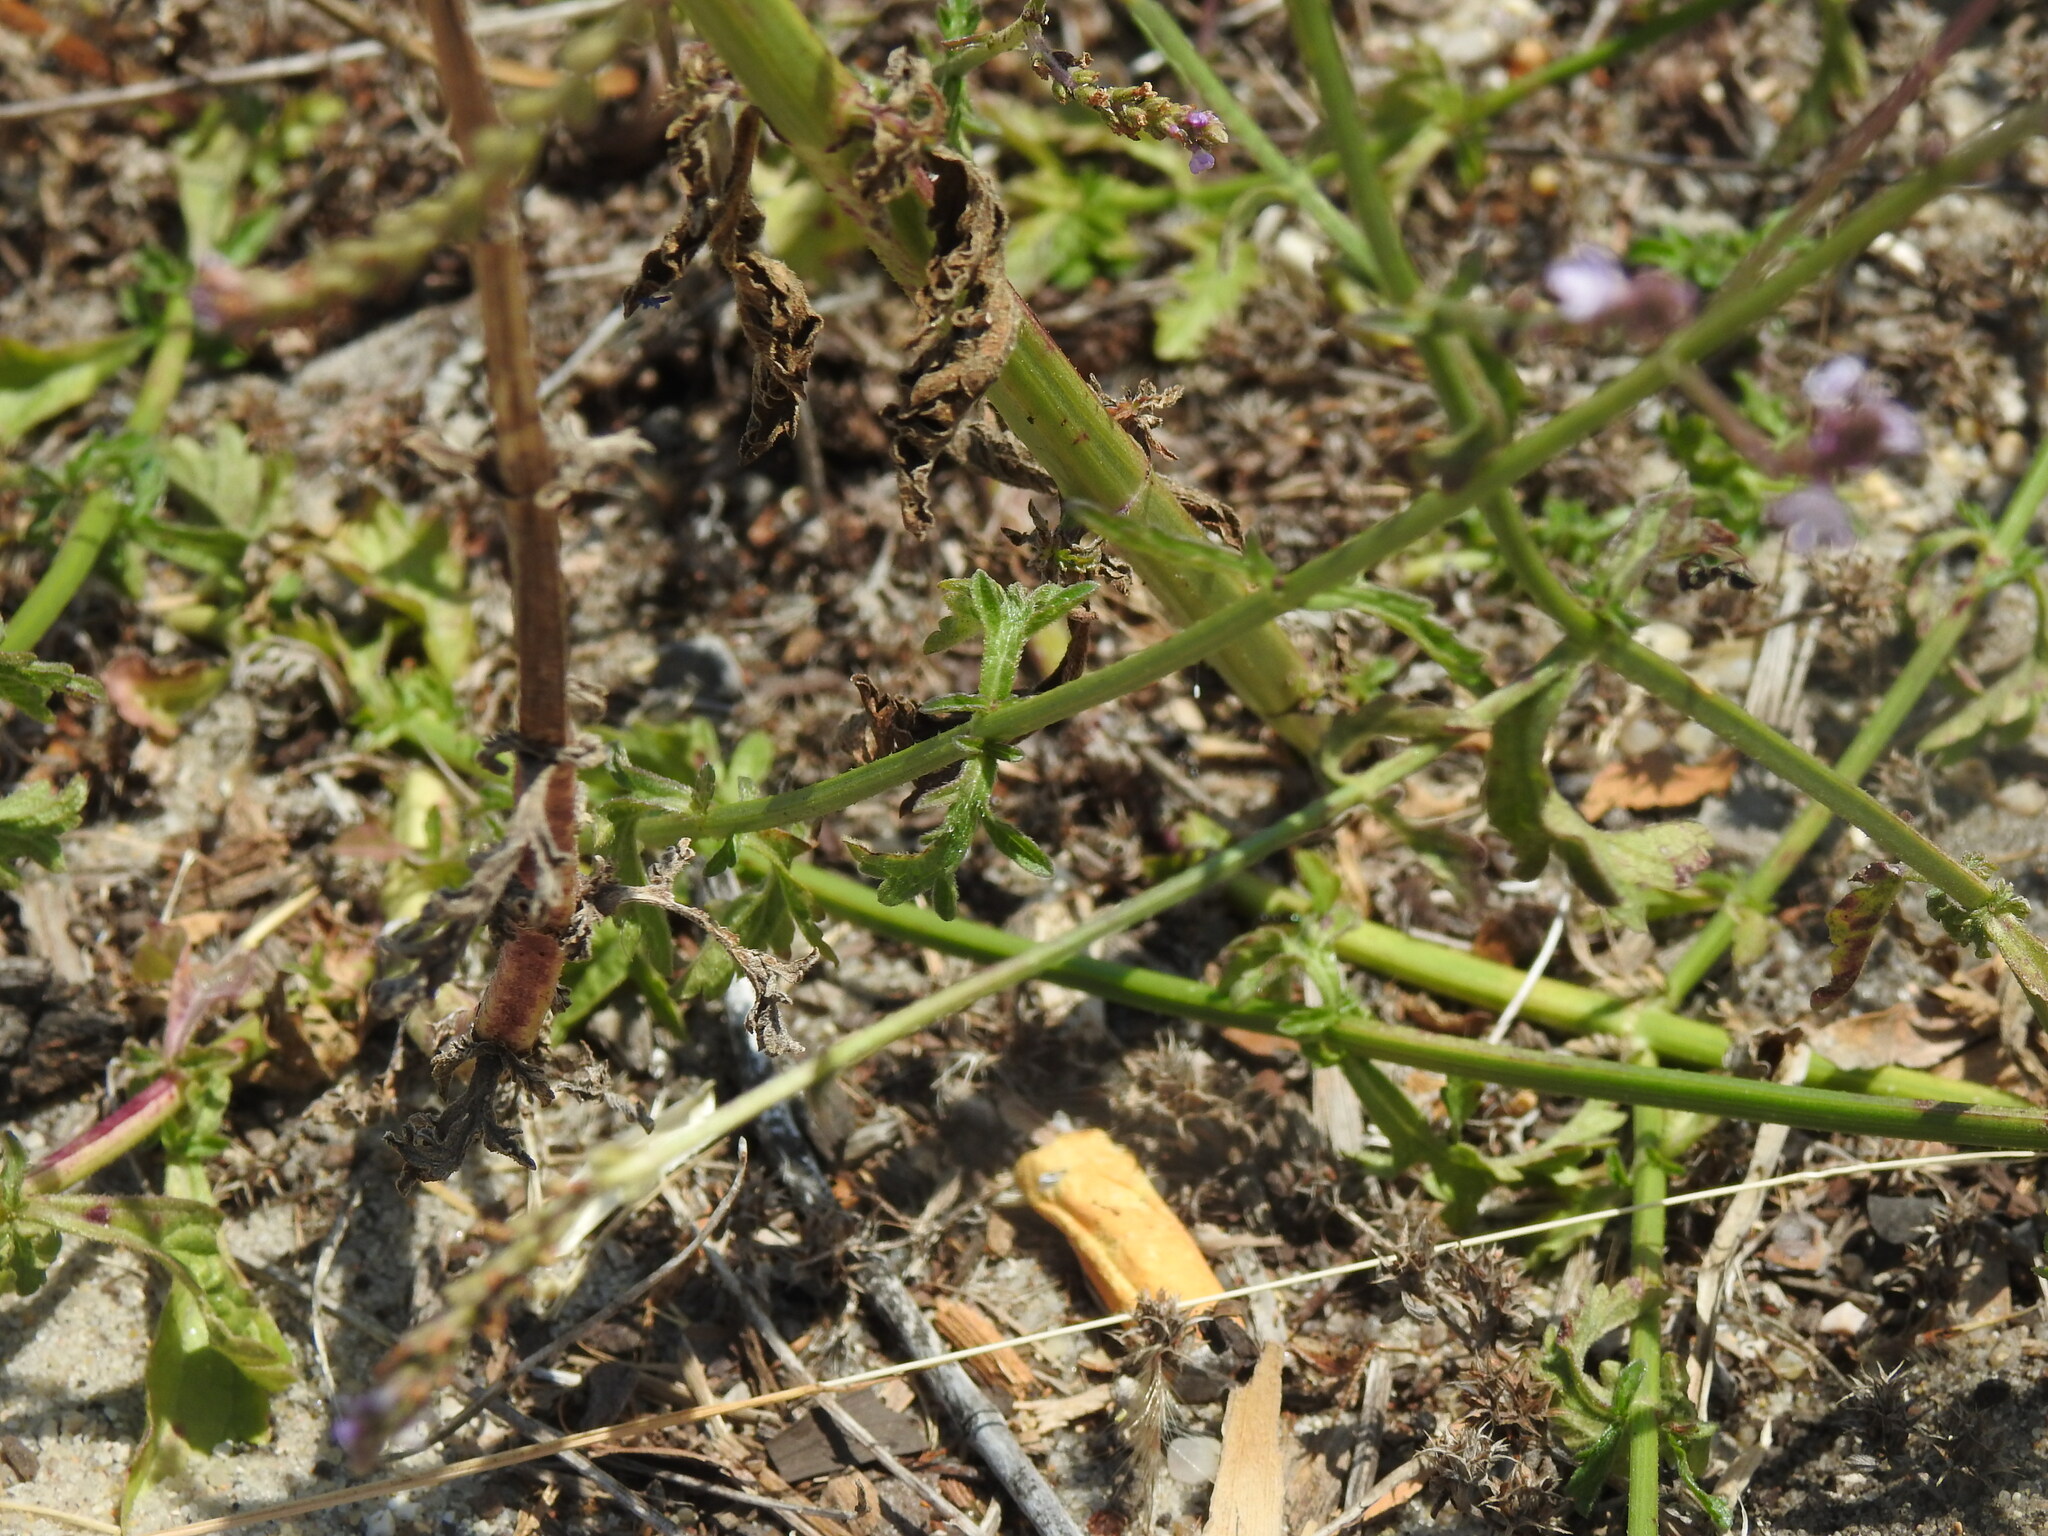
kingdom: Plantae
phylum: Tracheophyta
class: Magnoliopsida
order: Lamiales
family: Verbenaceae
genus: Verbena
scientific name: Verbena officinalis
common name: Vervain
